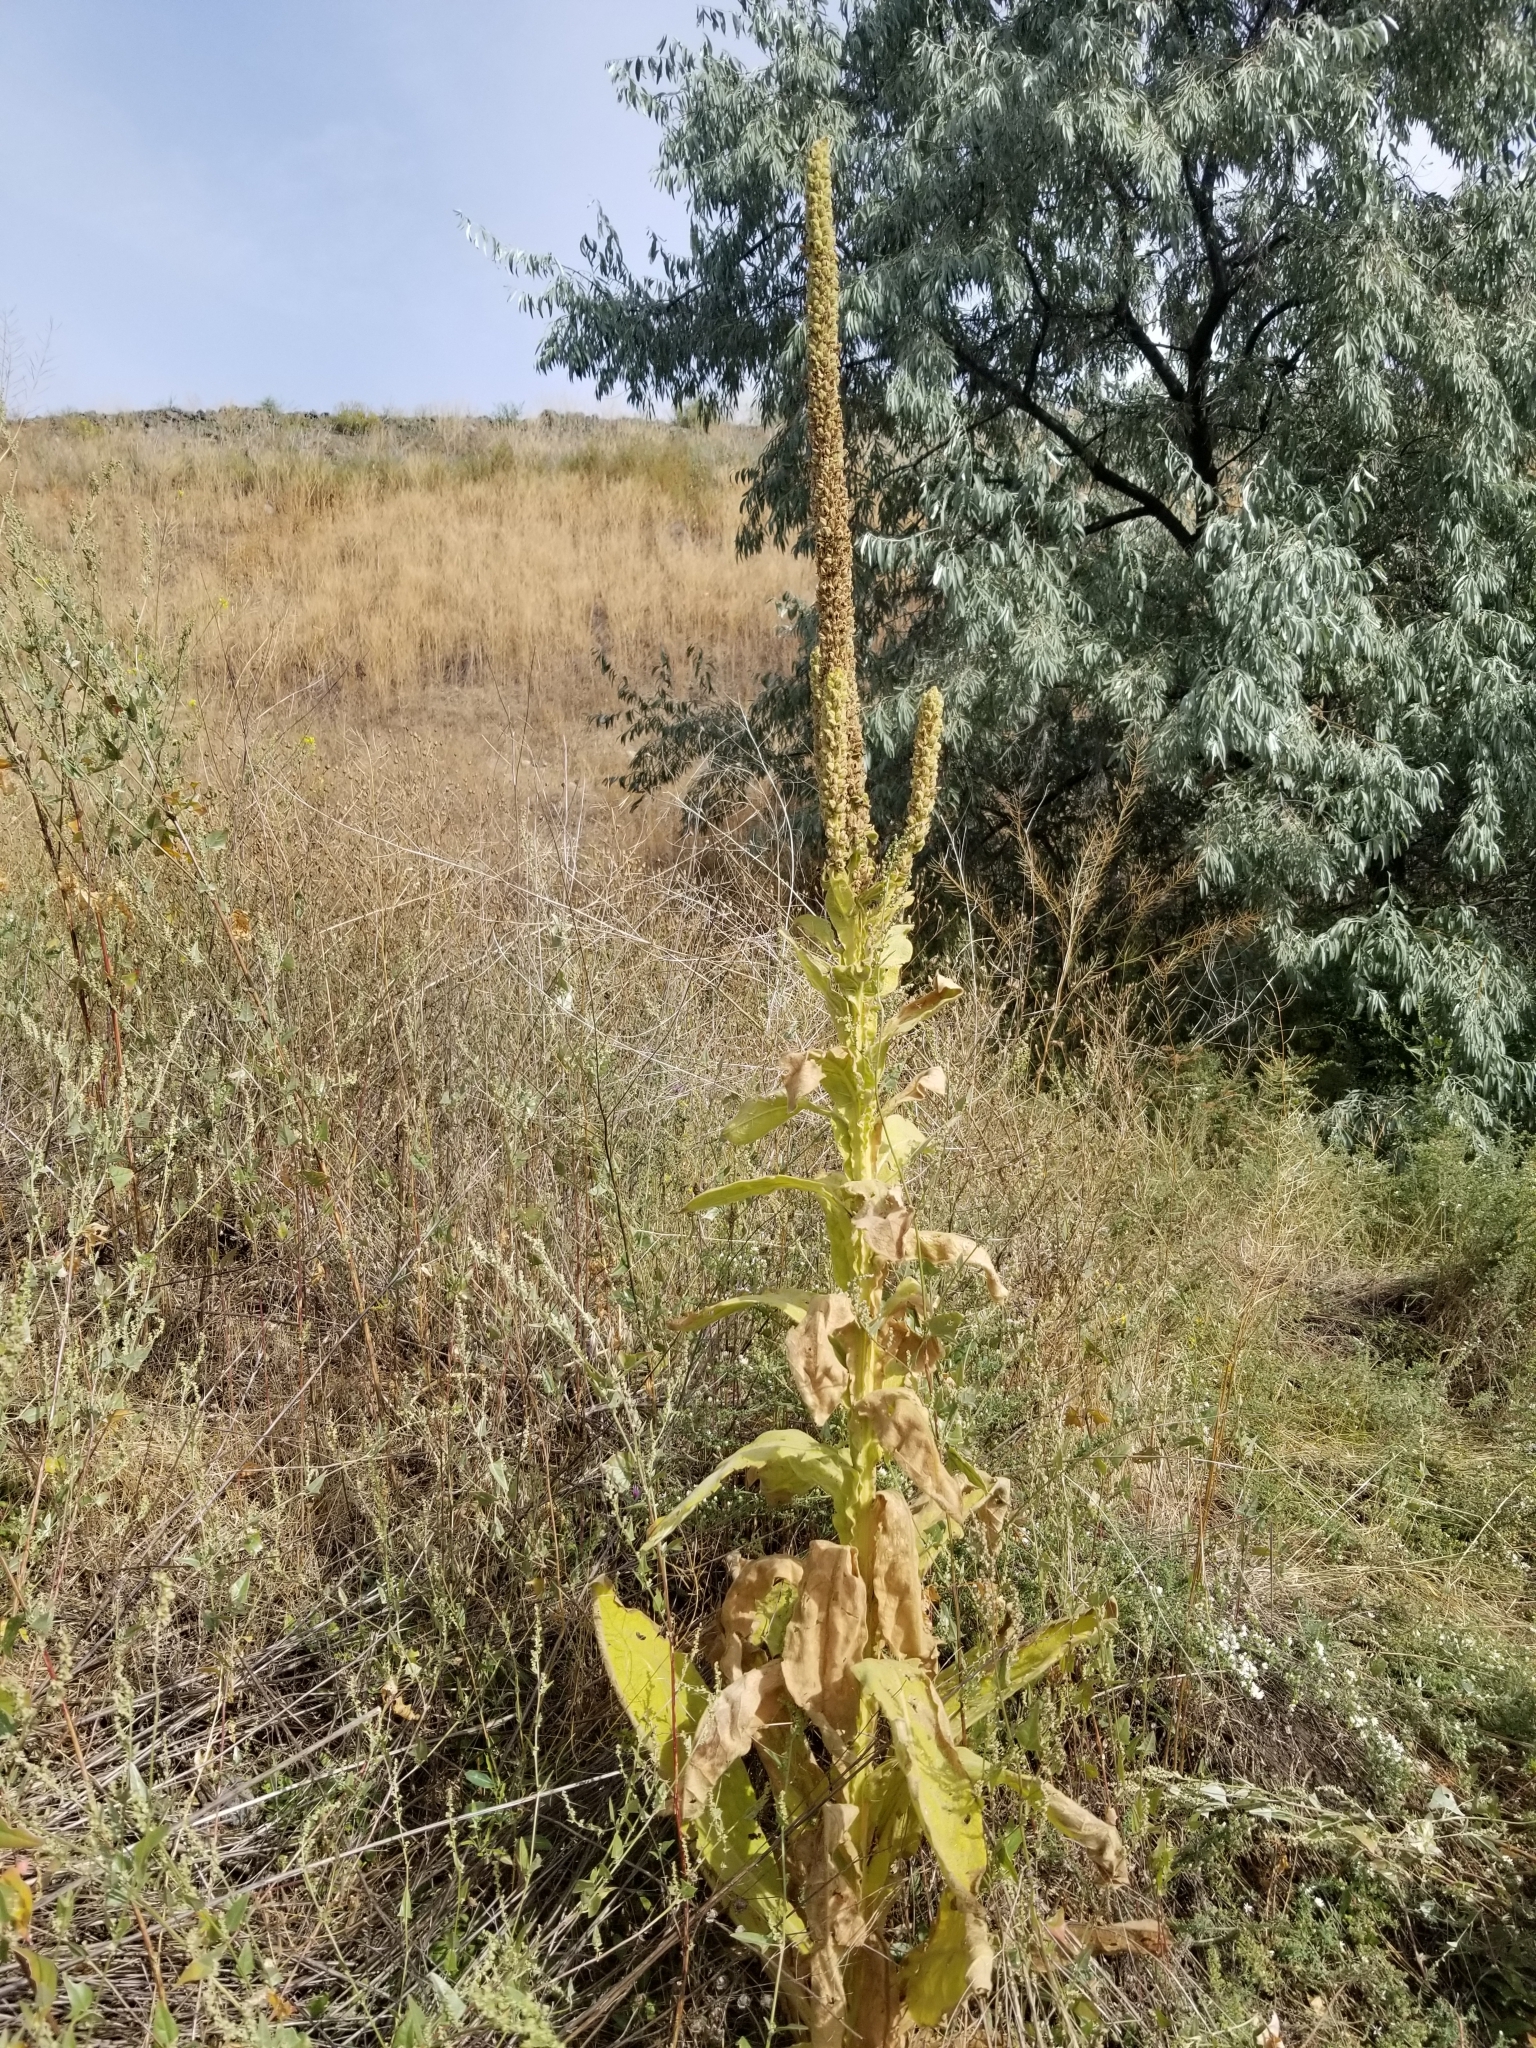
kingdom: Plantae
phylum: Tracheophyta
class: Magnoliopsida
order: Lamiales
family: Scrophulariaceae
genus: Verbascum
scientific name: Verbascum thapsus
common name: Common mullein
